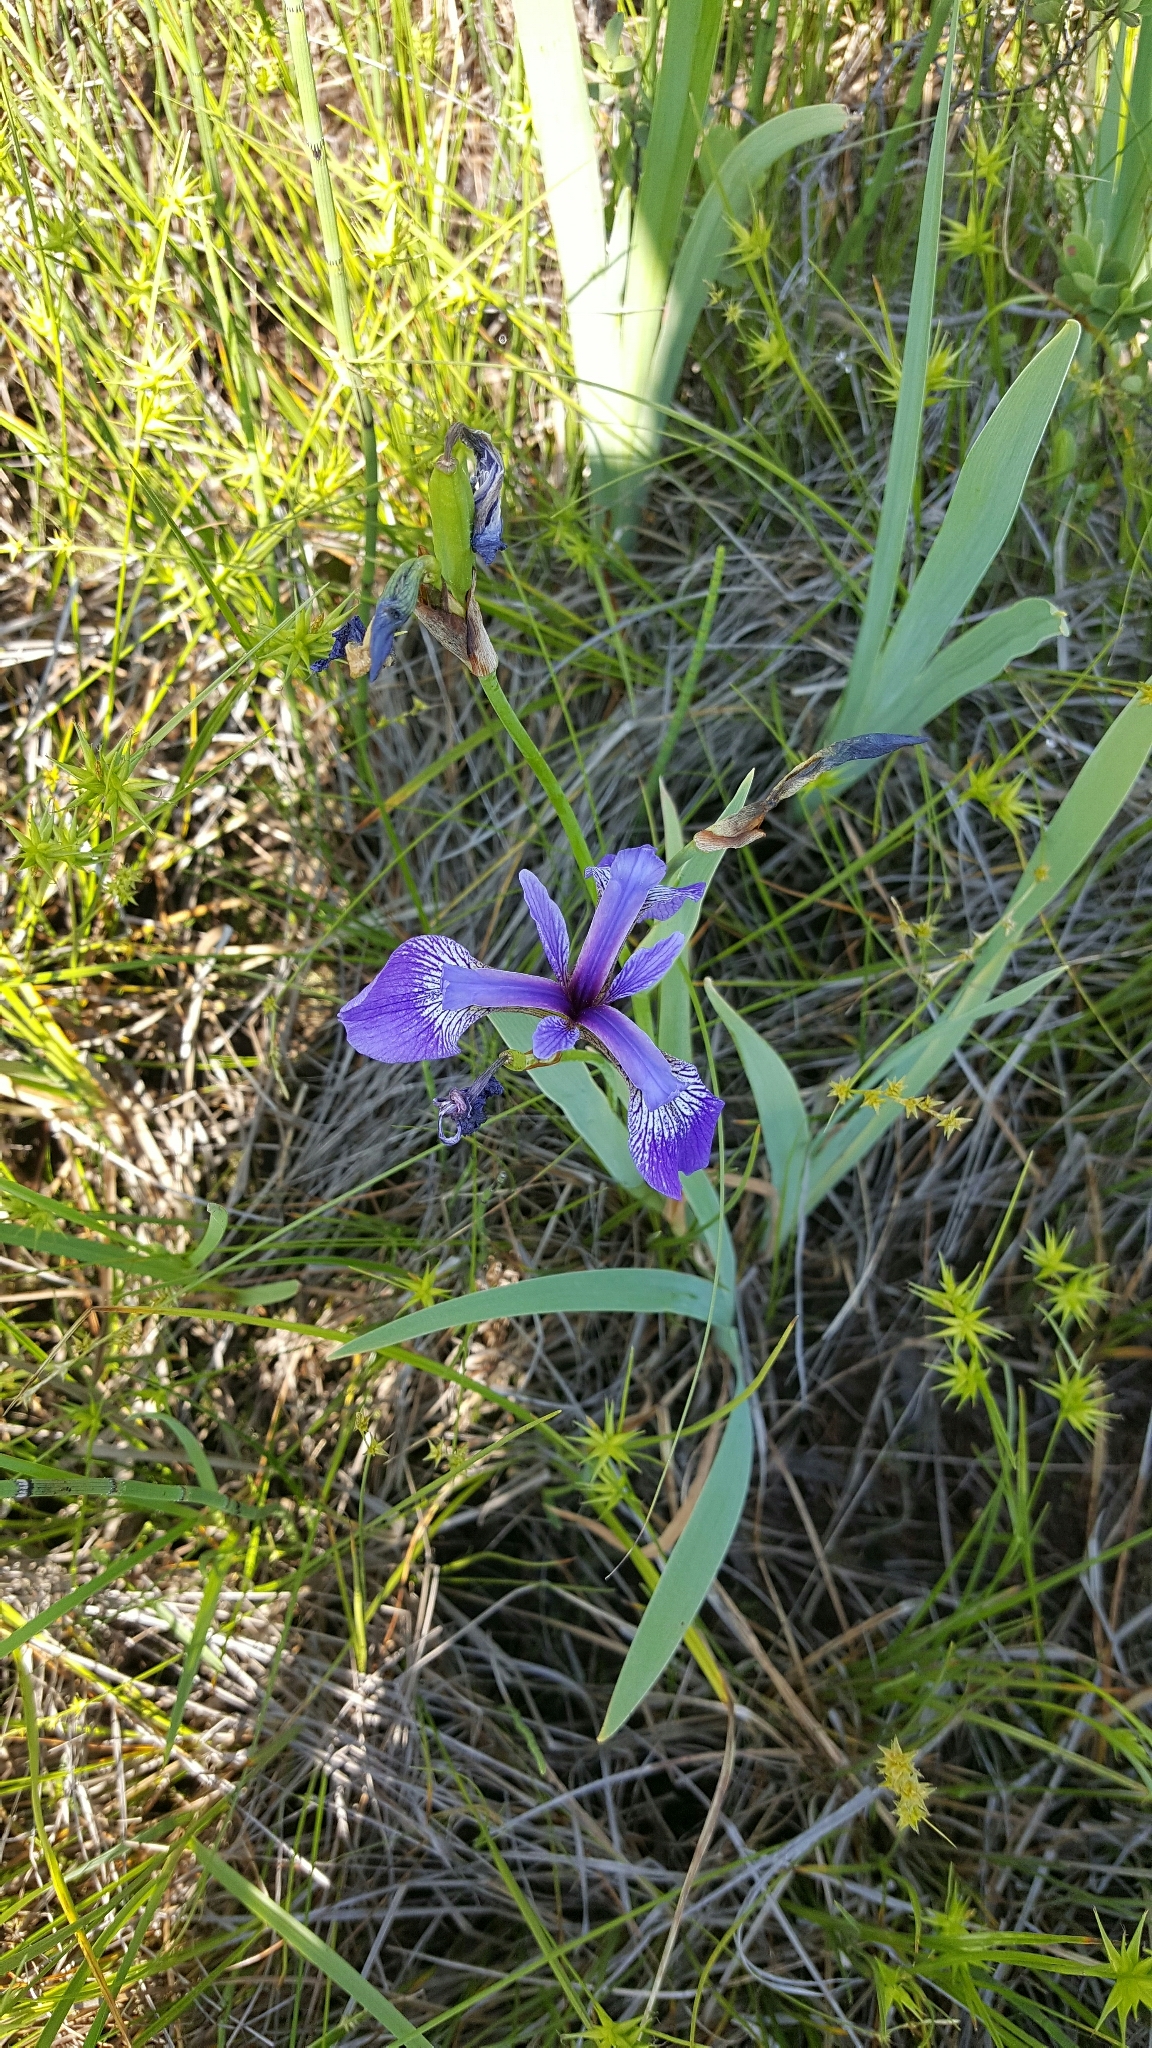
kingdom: Plantae
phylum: Tracheophyta
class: Liliopsida
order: Asparagales
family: Iridaceae
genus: Iris
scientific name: Iris versicolor
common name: Purple iris
